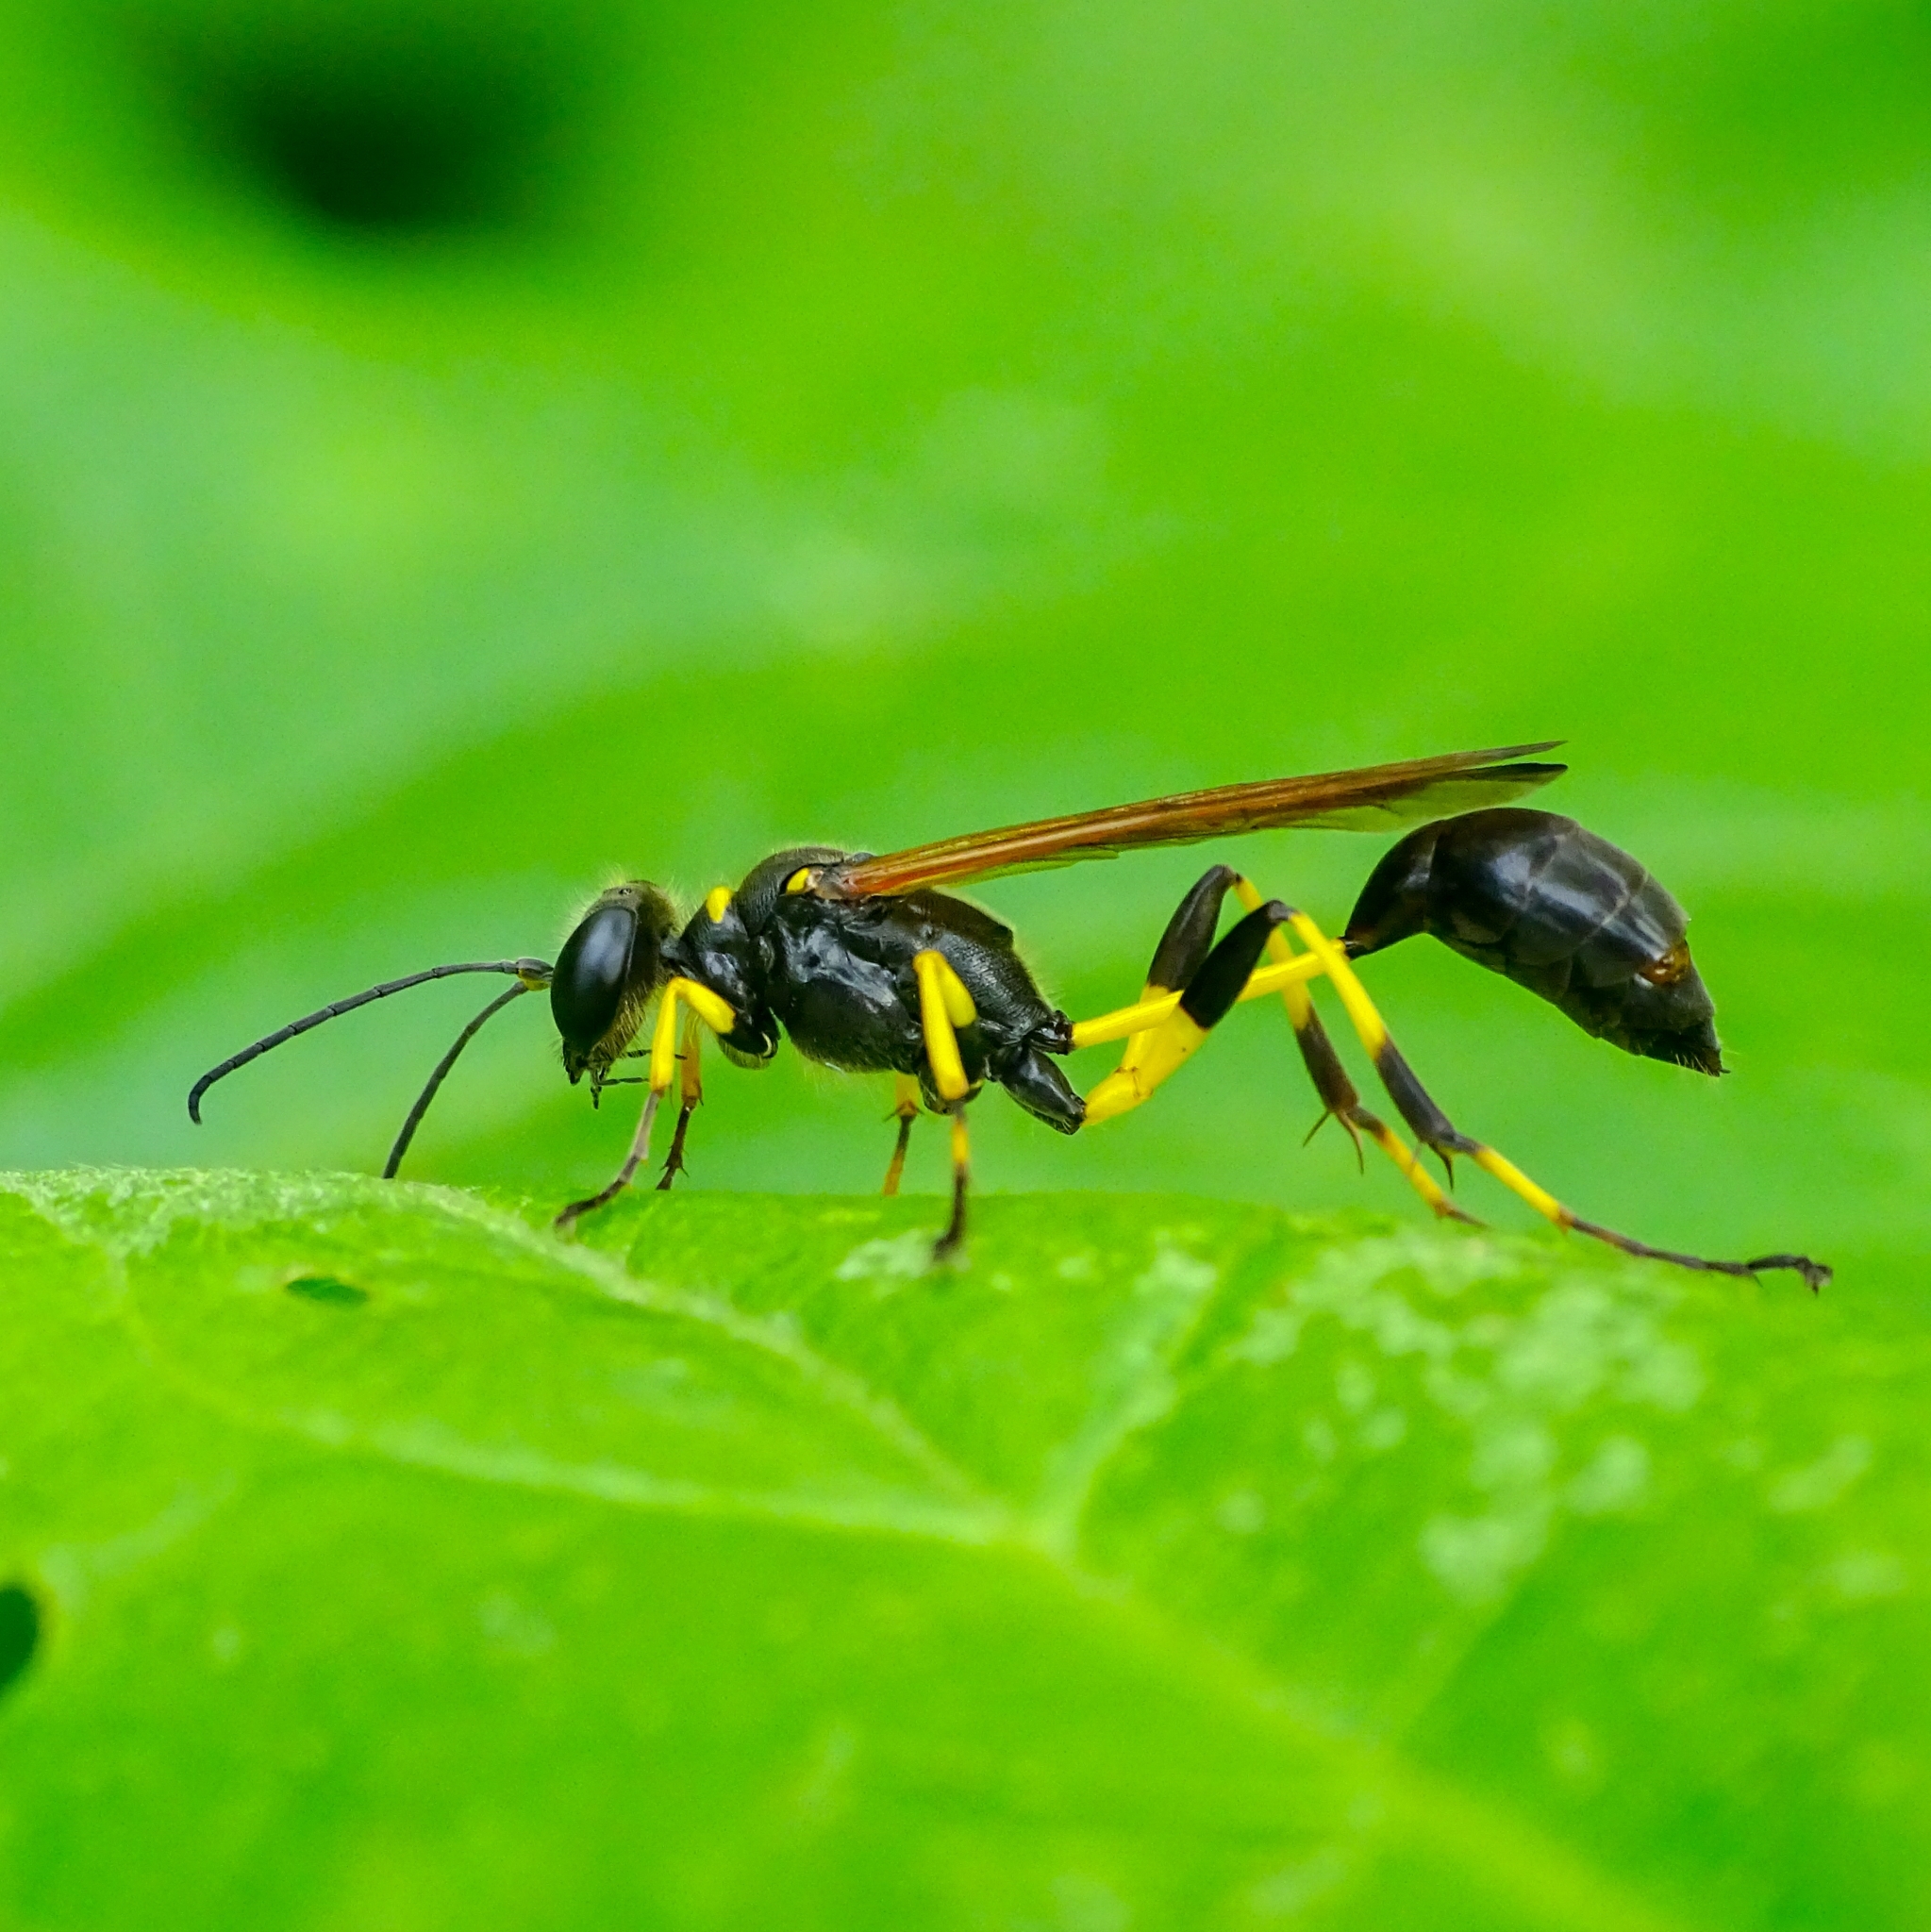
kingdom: Animalia
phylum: Arthropoda
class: Insecta
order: Hymenoptera
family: Sphecidae
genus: Sceliphron
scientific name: Sceliphron madraspatanum
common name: Mud dauber
